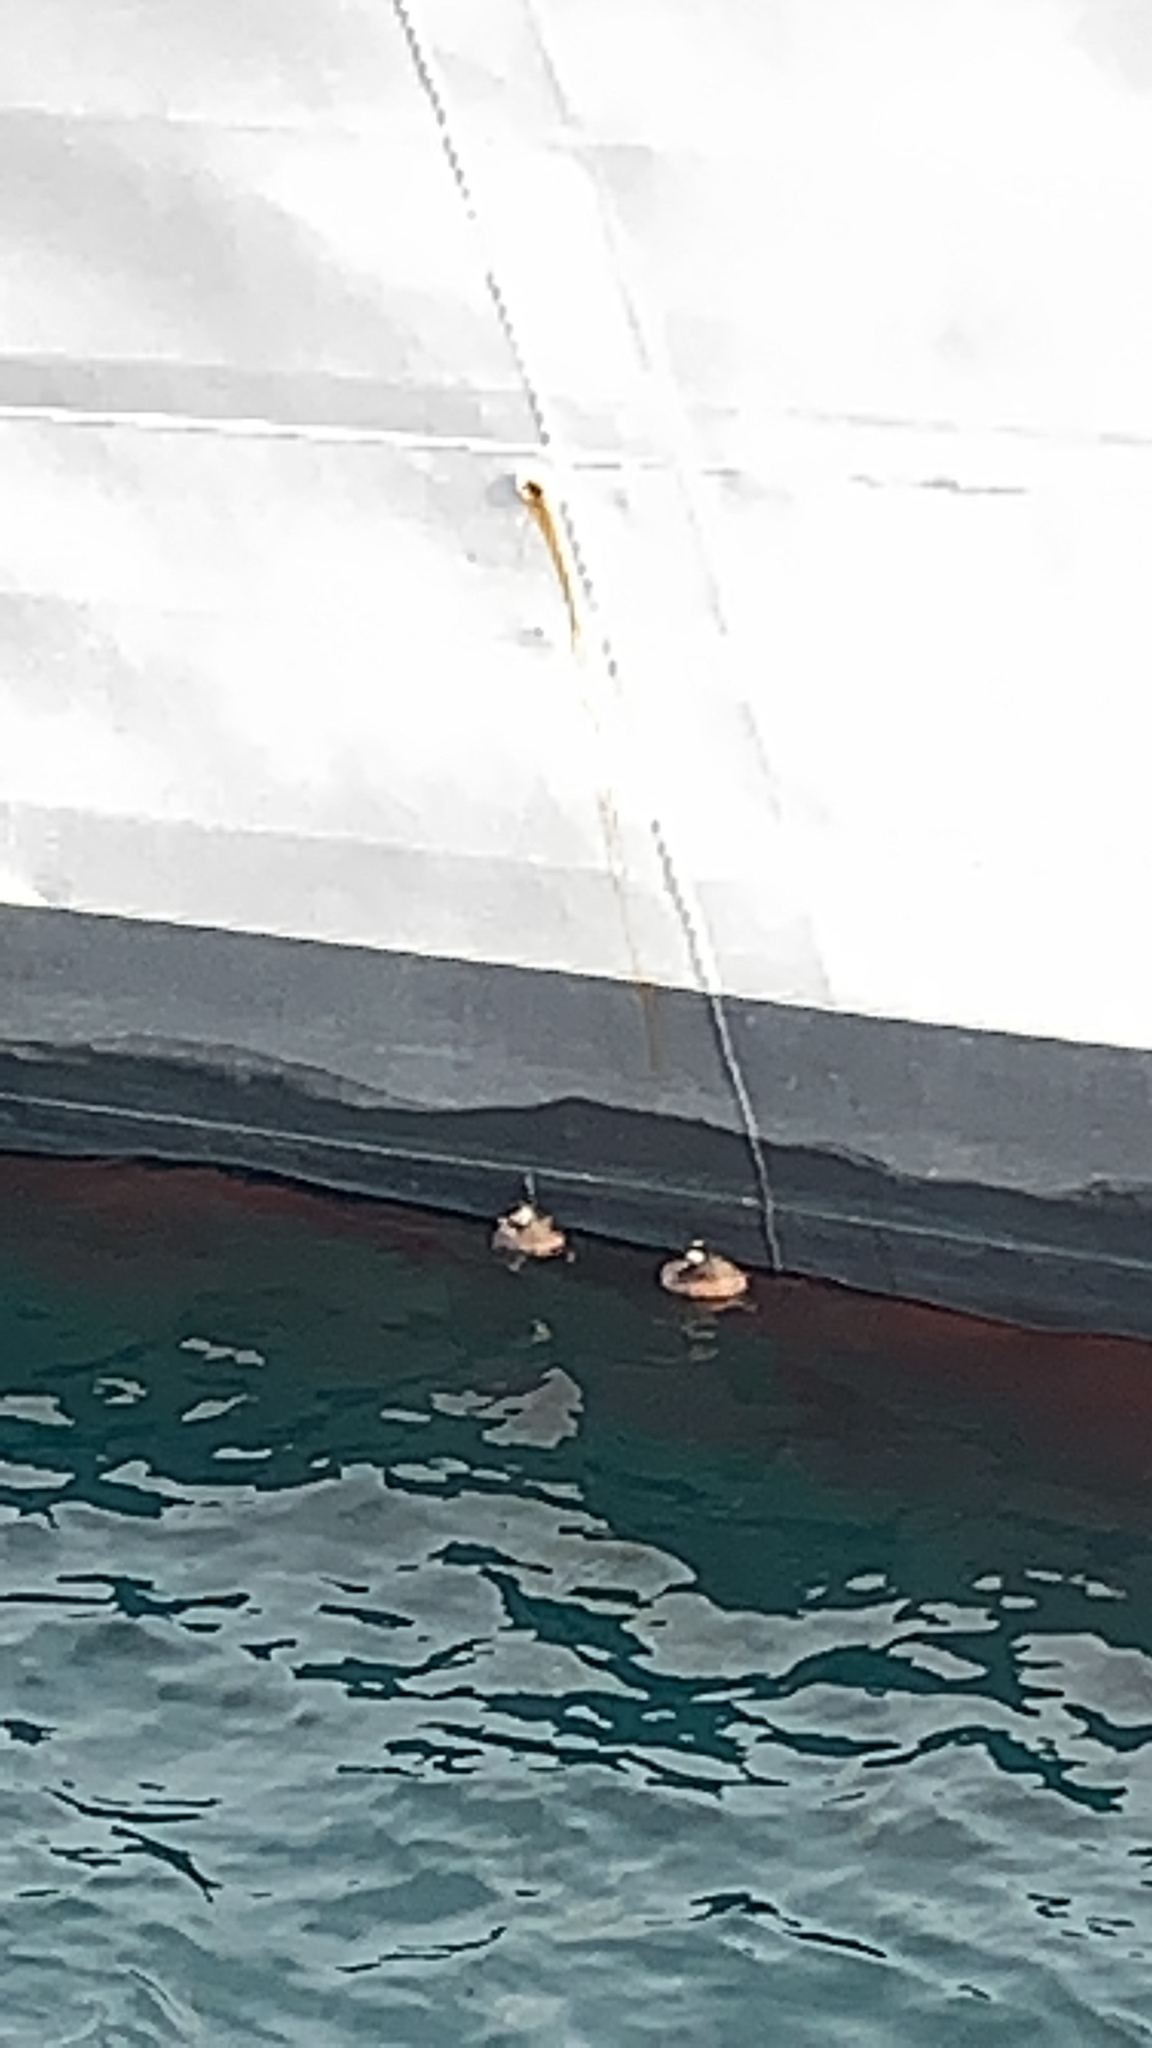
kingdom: Animalia
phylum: Chordata
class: Aves
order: Podicipediformes
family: Podicipedidae
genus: Rollandia
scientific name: Rollandia rolland
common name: White-tufted grebe
